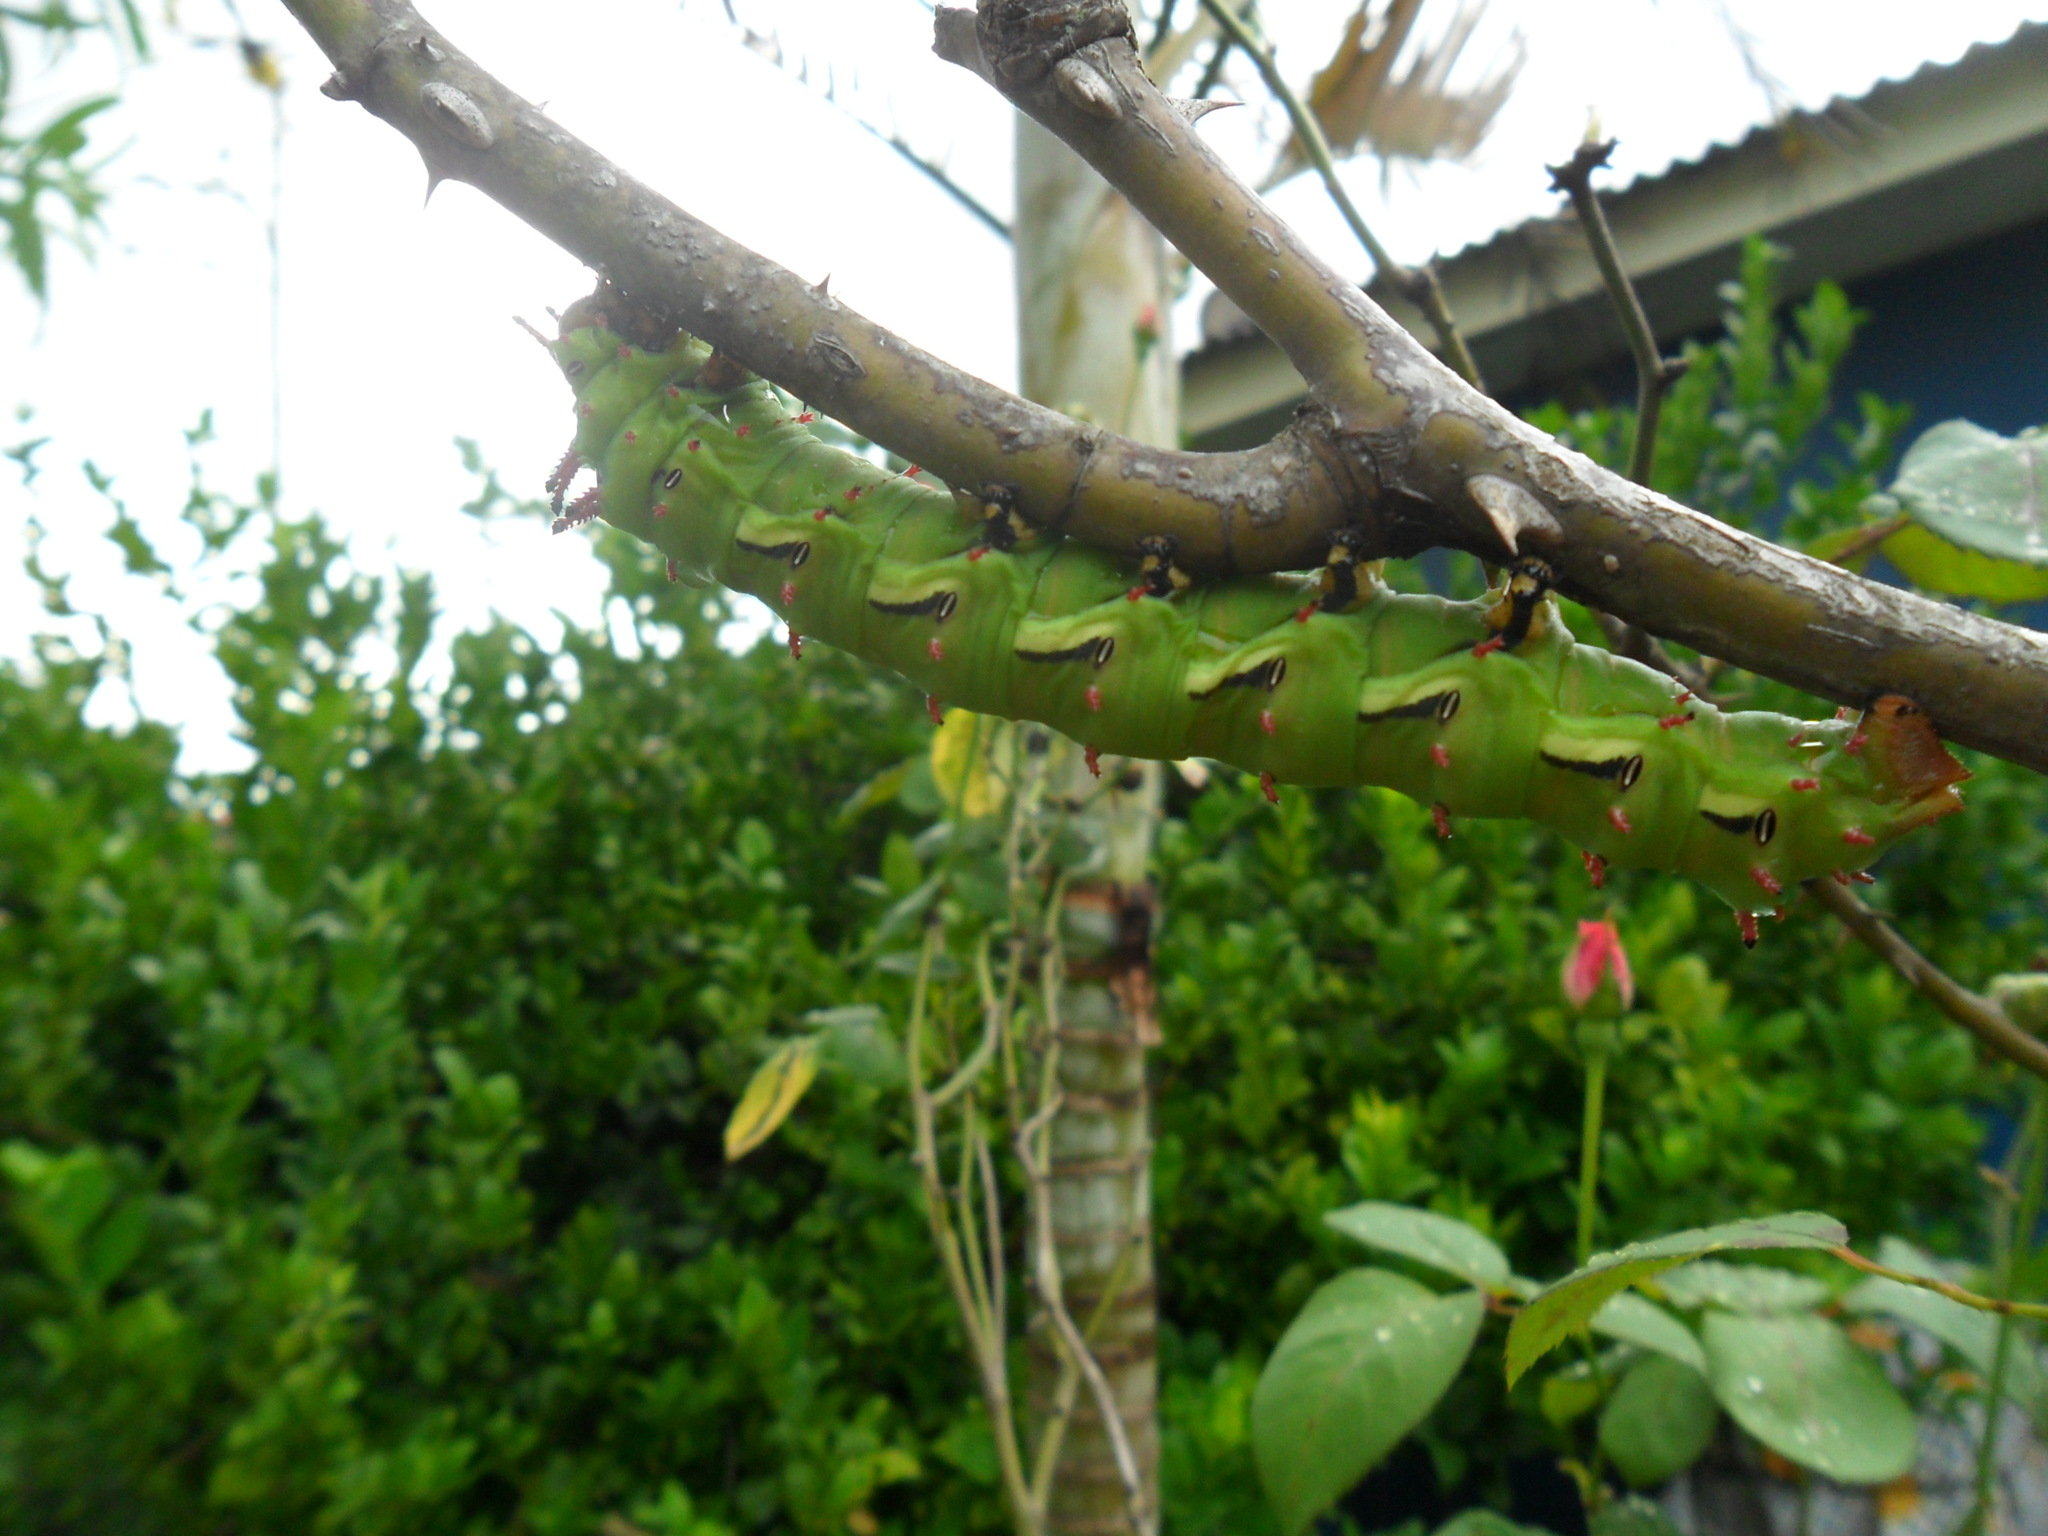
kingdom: Animalia
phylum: Arthropoda
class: Insecta
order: Lepidoptera
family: Saturniidae
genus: Citheronia
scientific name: Citheronia laocoon
